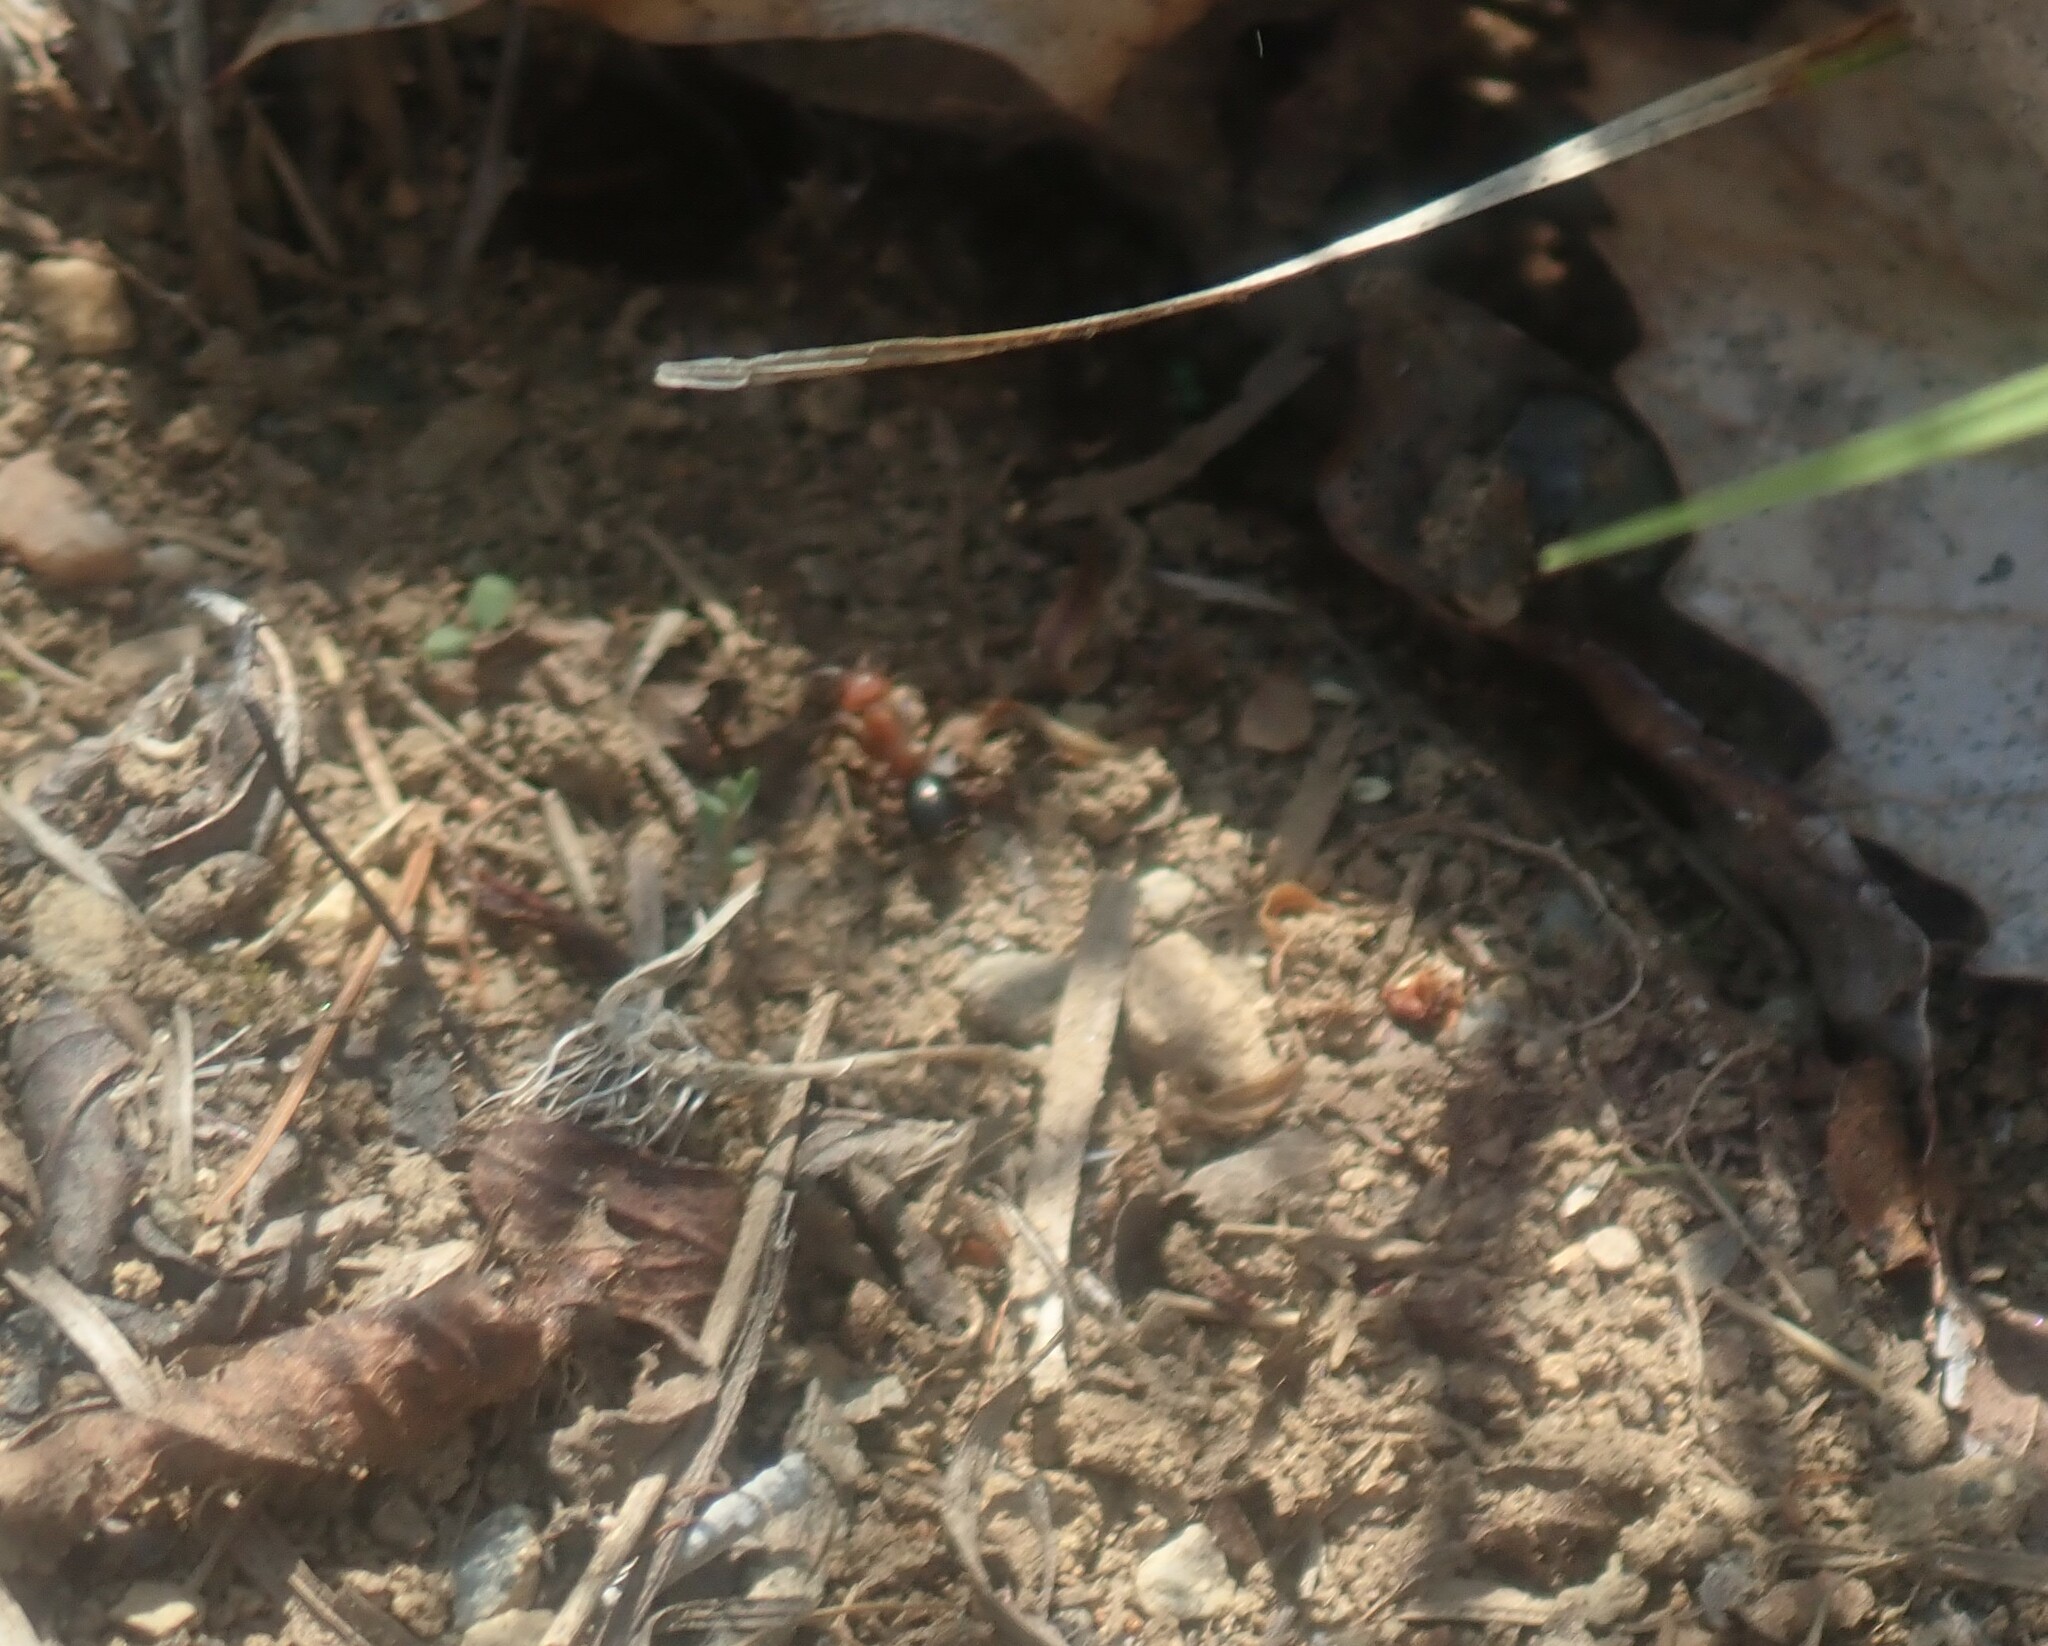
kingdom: Animalia
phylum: Arthropoda
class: Insecta
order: Hymenoptera
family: Formicidae
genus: Formica
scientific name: Formica exsectoides
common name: Allegheny mound ant
